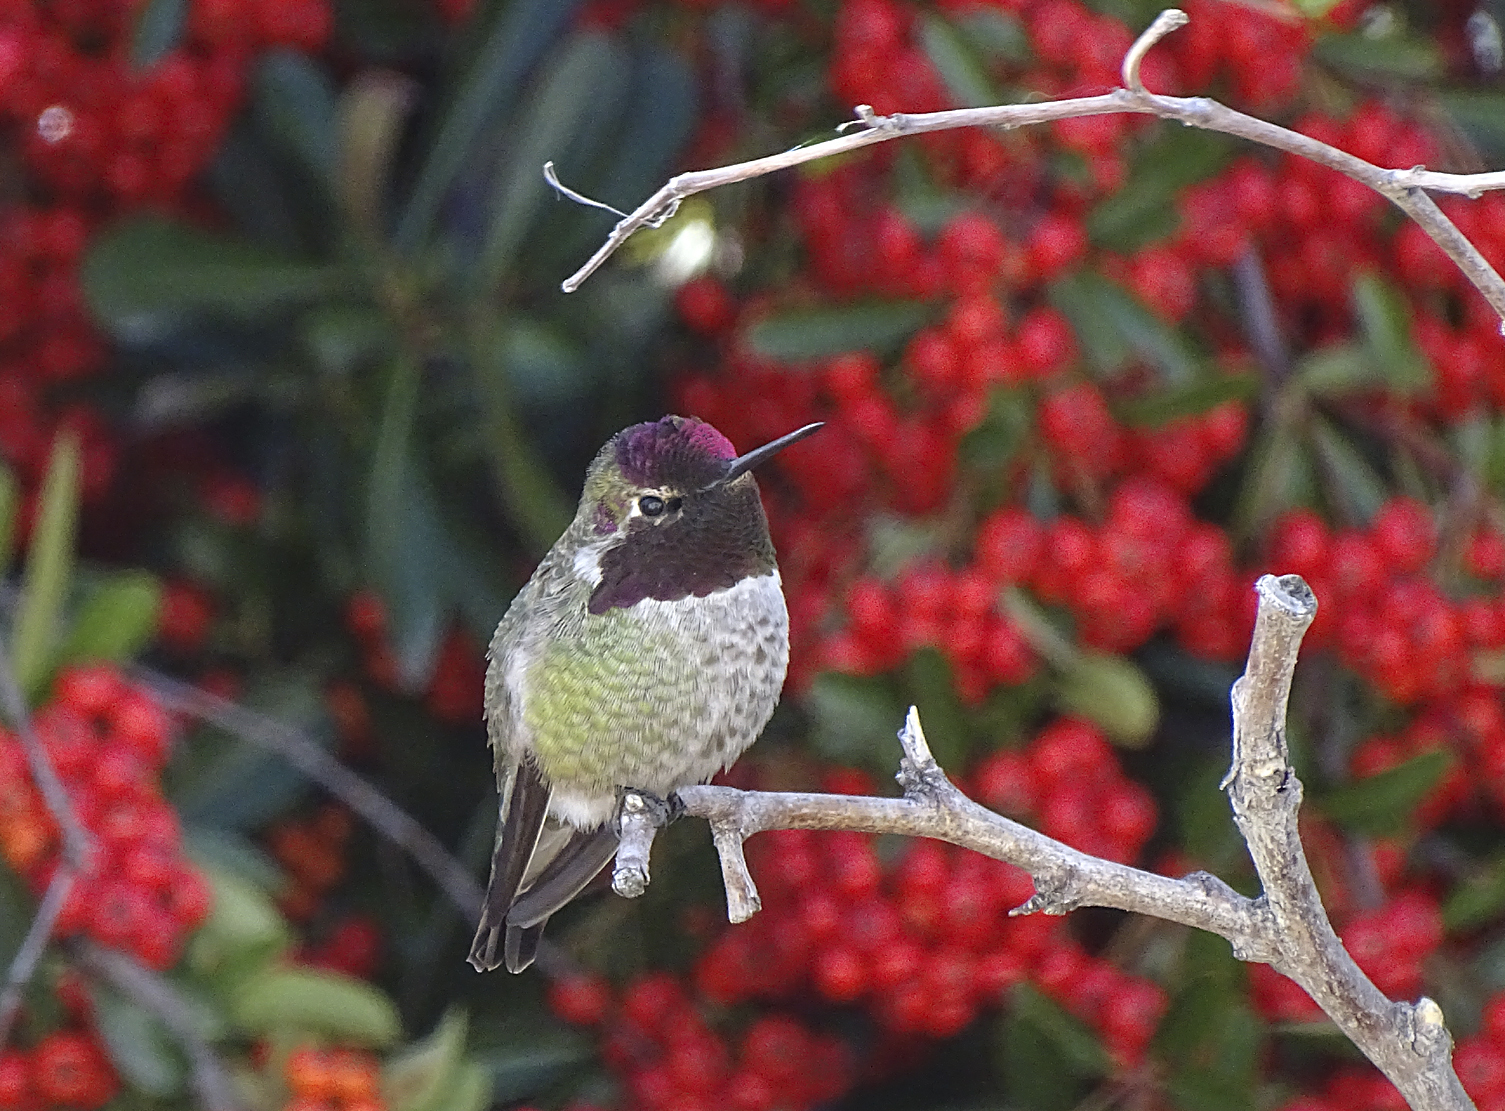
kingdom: Animalia
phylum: Chordata
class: Aves
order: Apodiformes
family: Trochilidae
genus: Calypte
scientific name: Calypte anna
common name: Anna's hummingbird
